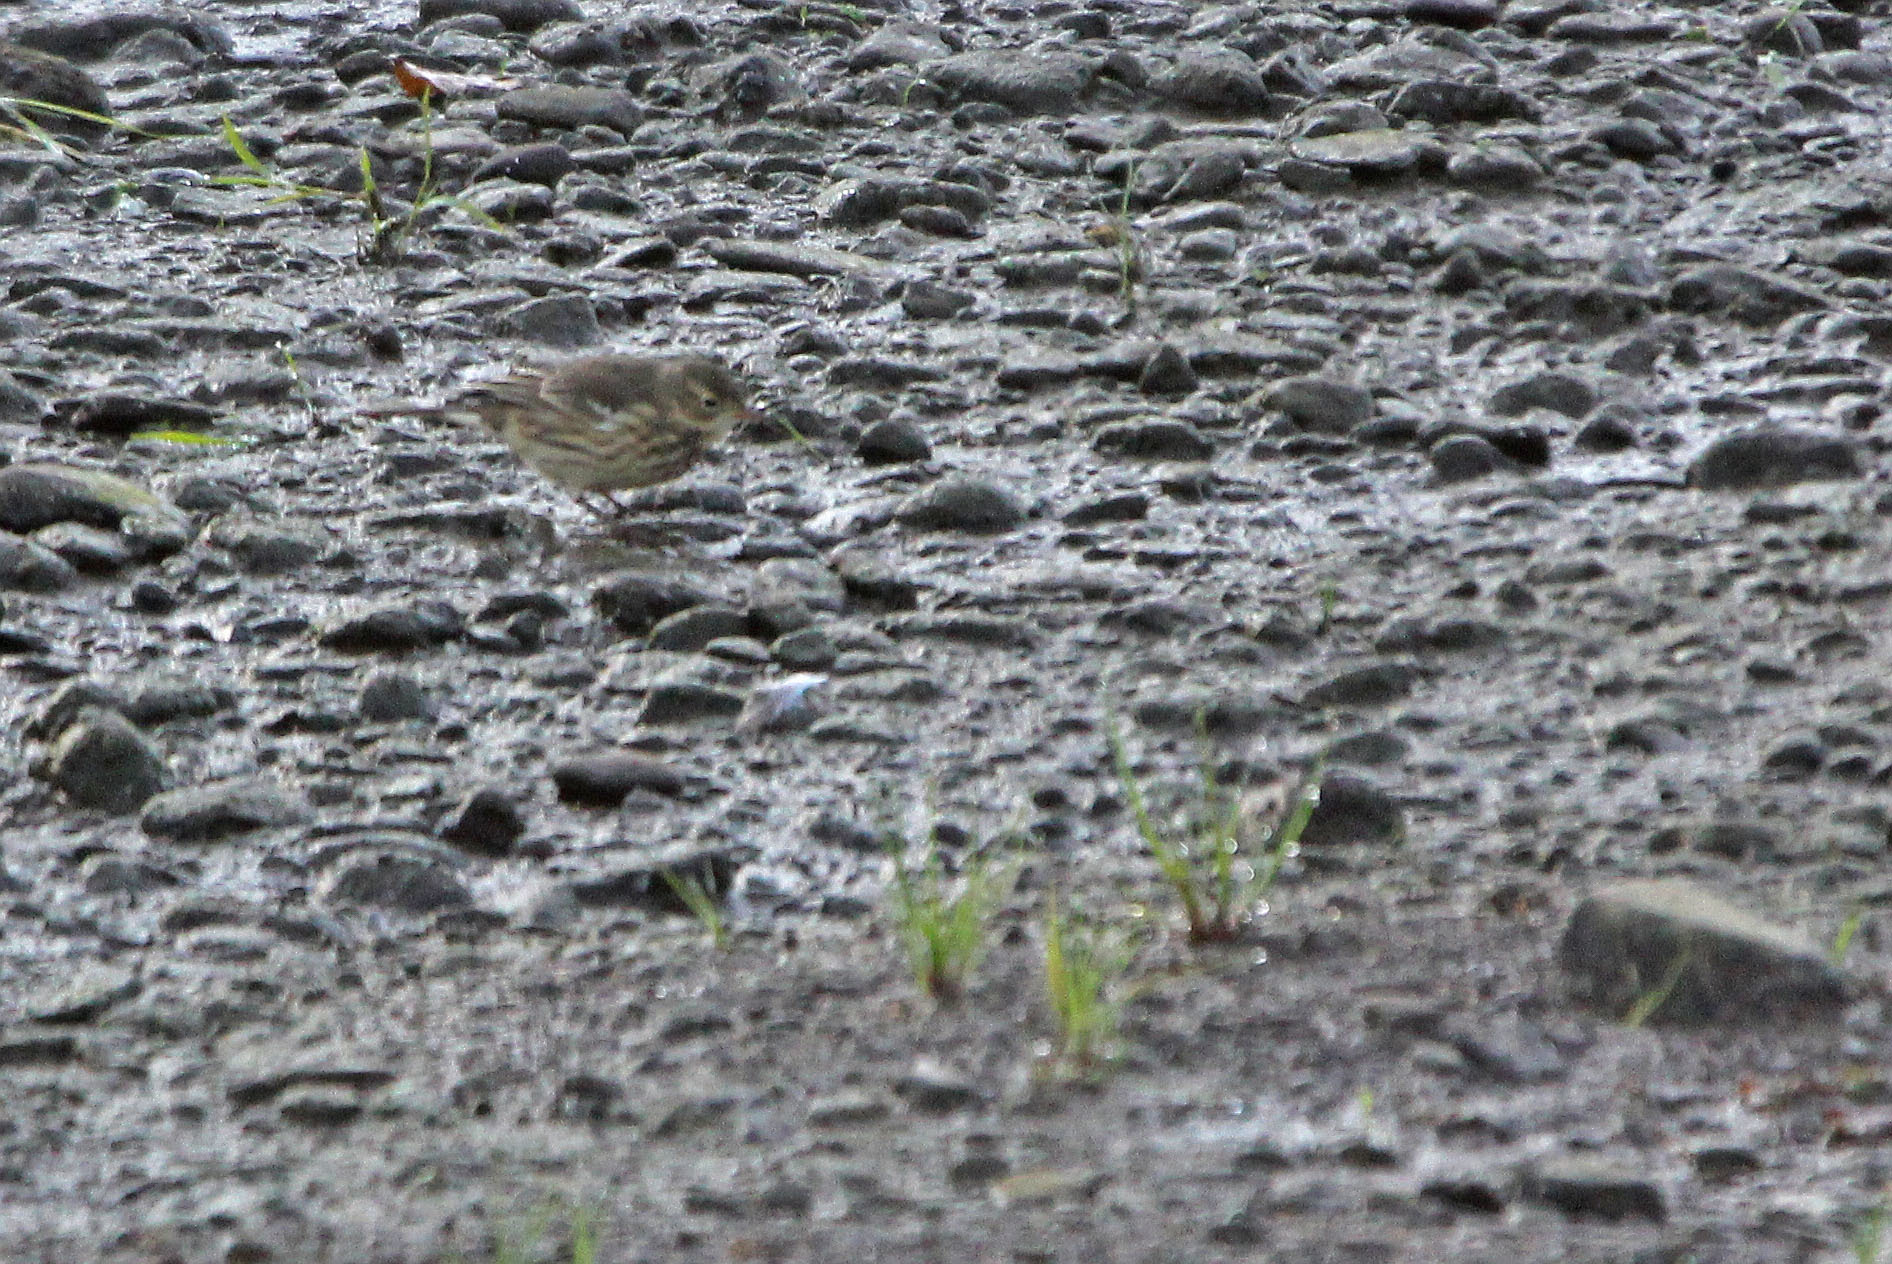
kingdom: Animalia
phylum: Chordata
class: Aves
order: Passeriformes
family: Motacillidae
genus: Anthus
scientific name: Anthus rubescens
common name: Buff-bellied pipit
